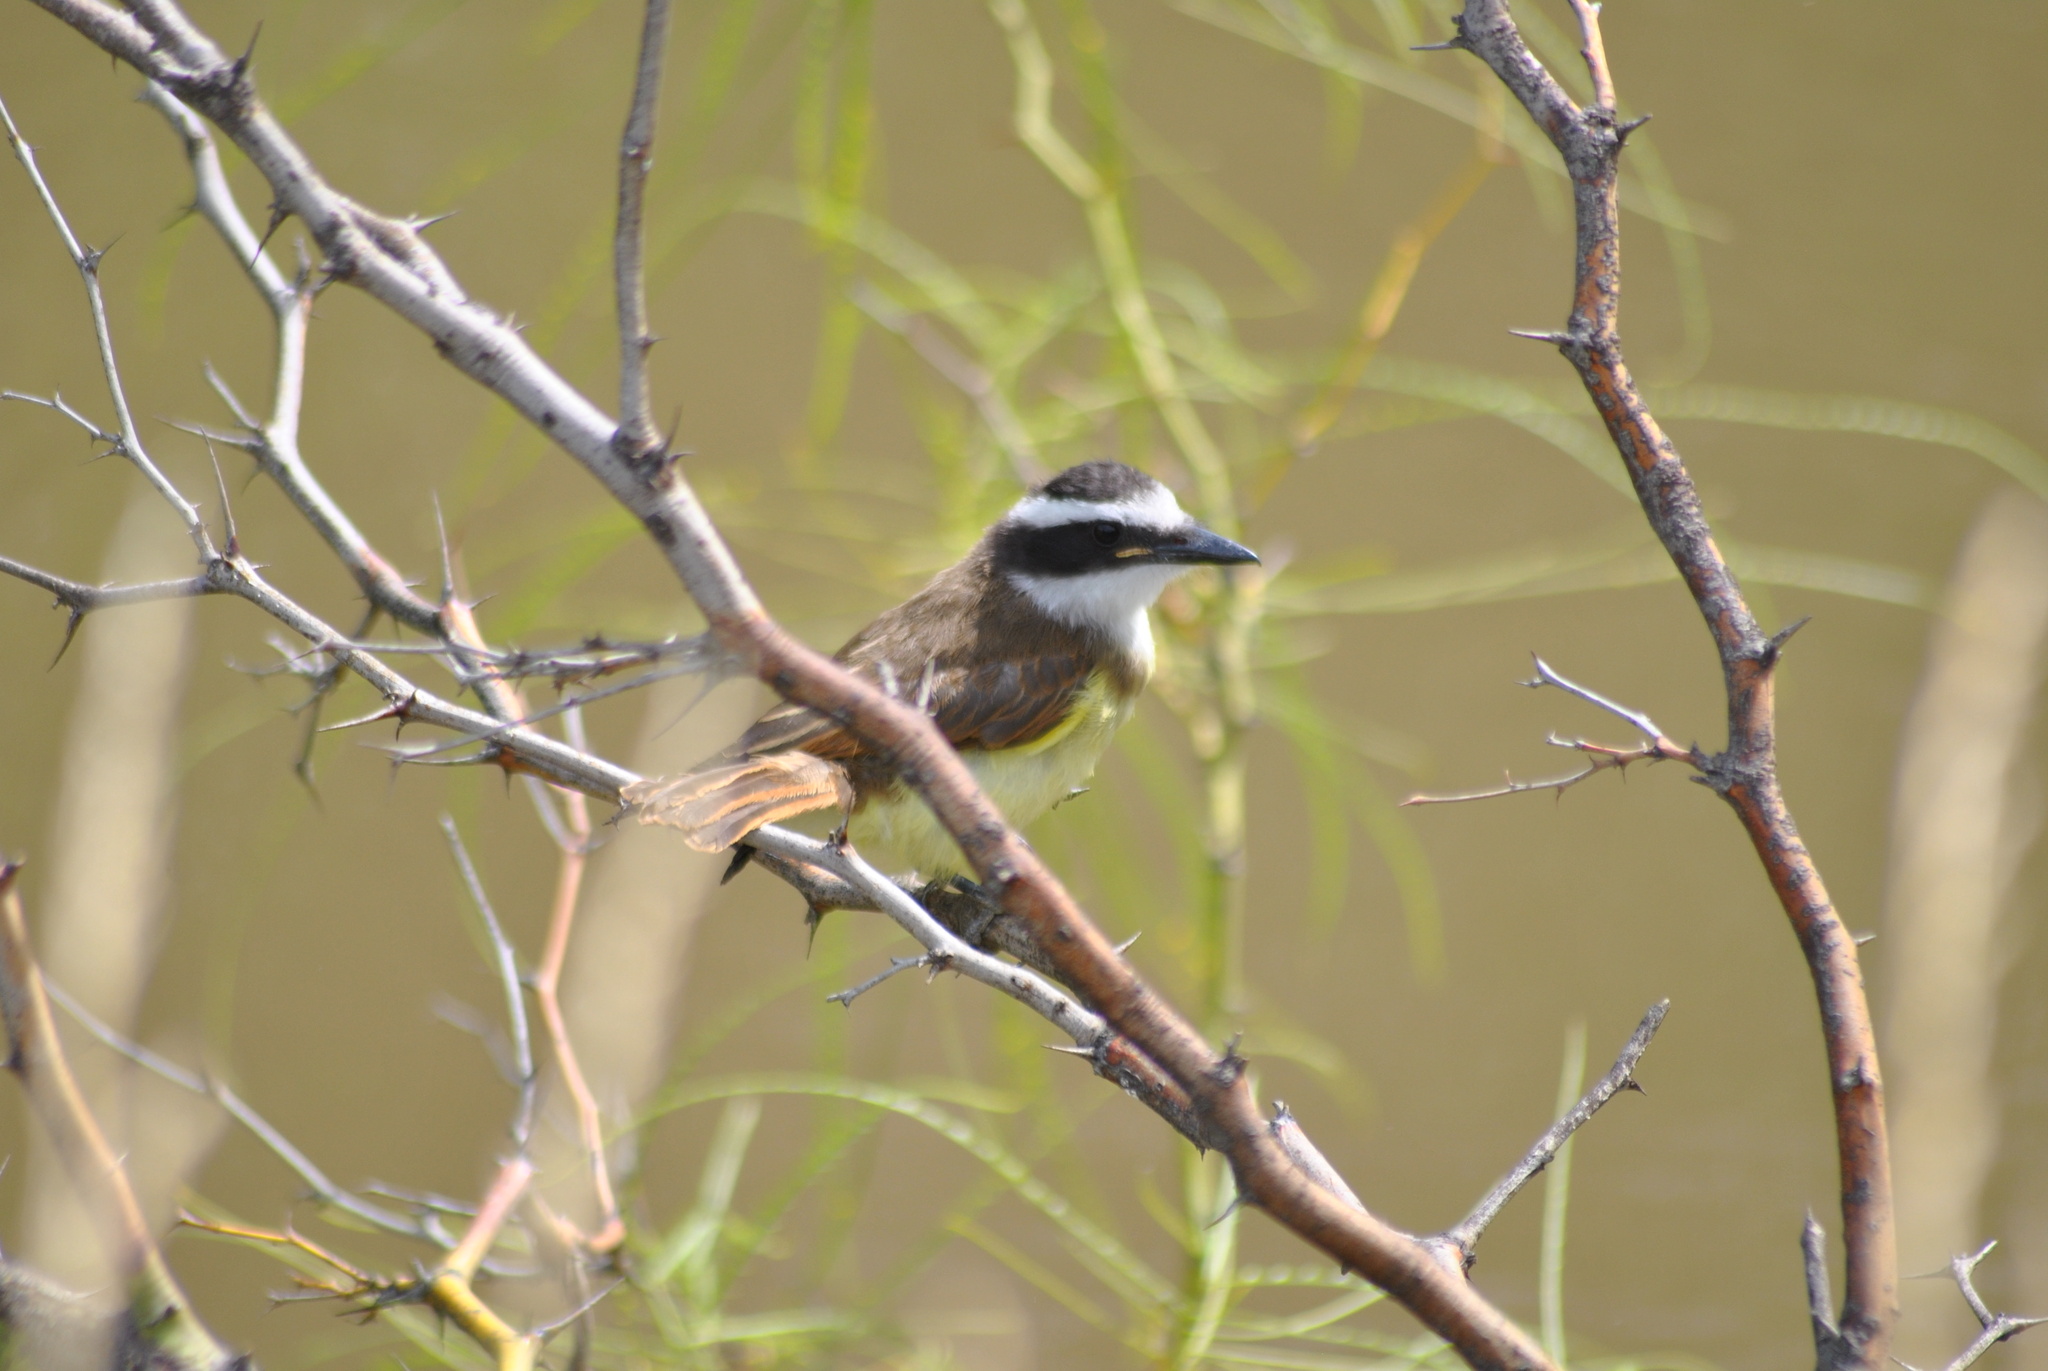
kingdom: Animalia
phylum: Chordata
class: Aves
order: Passeriformes
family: Tyrannidae
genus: Pitangus
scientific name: Pitangus sulphuratus
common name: Great kiskadee
